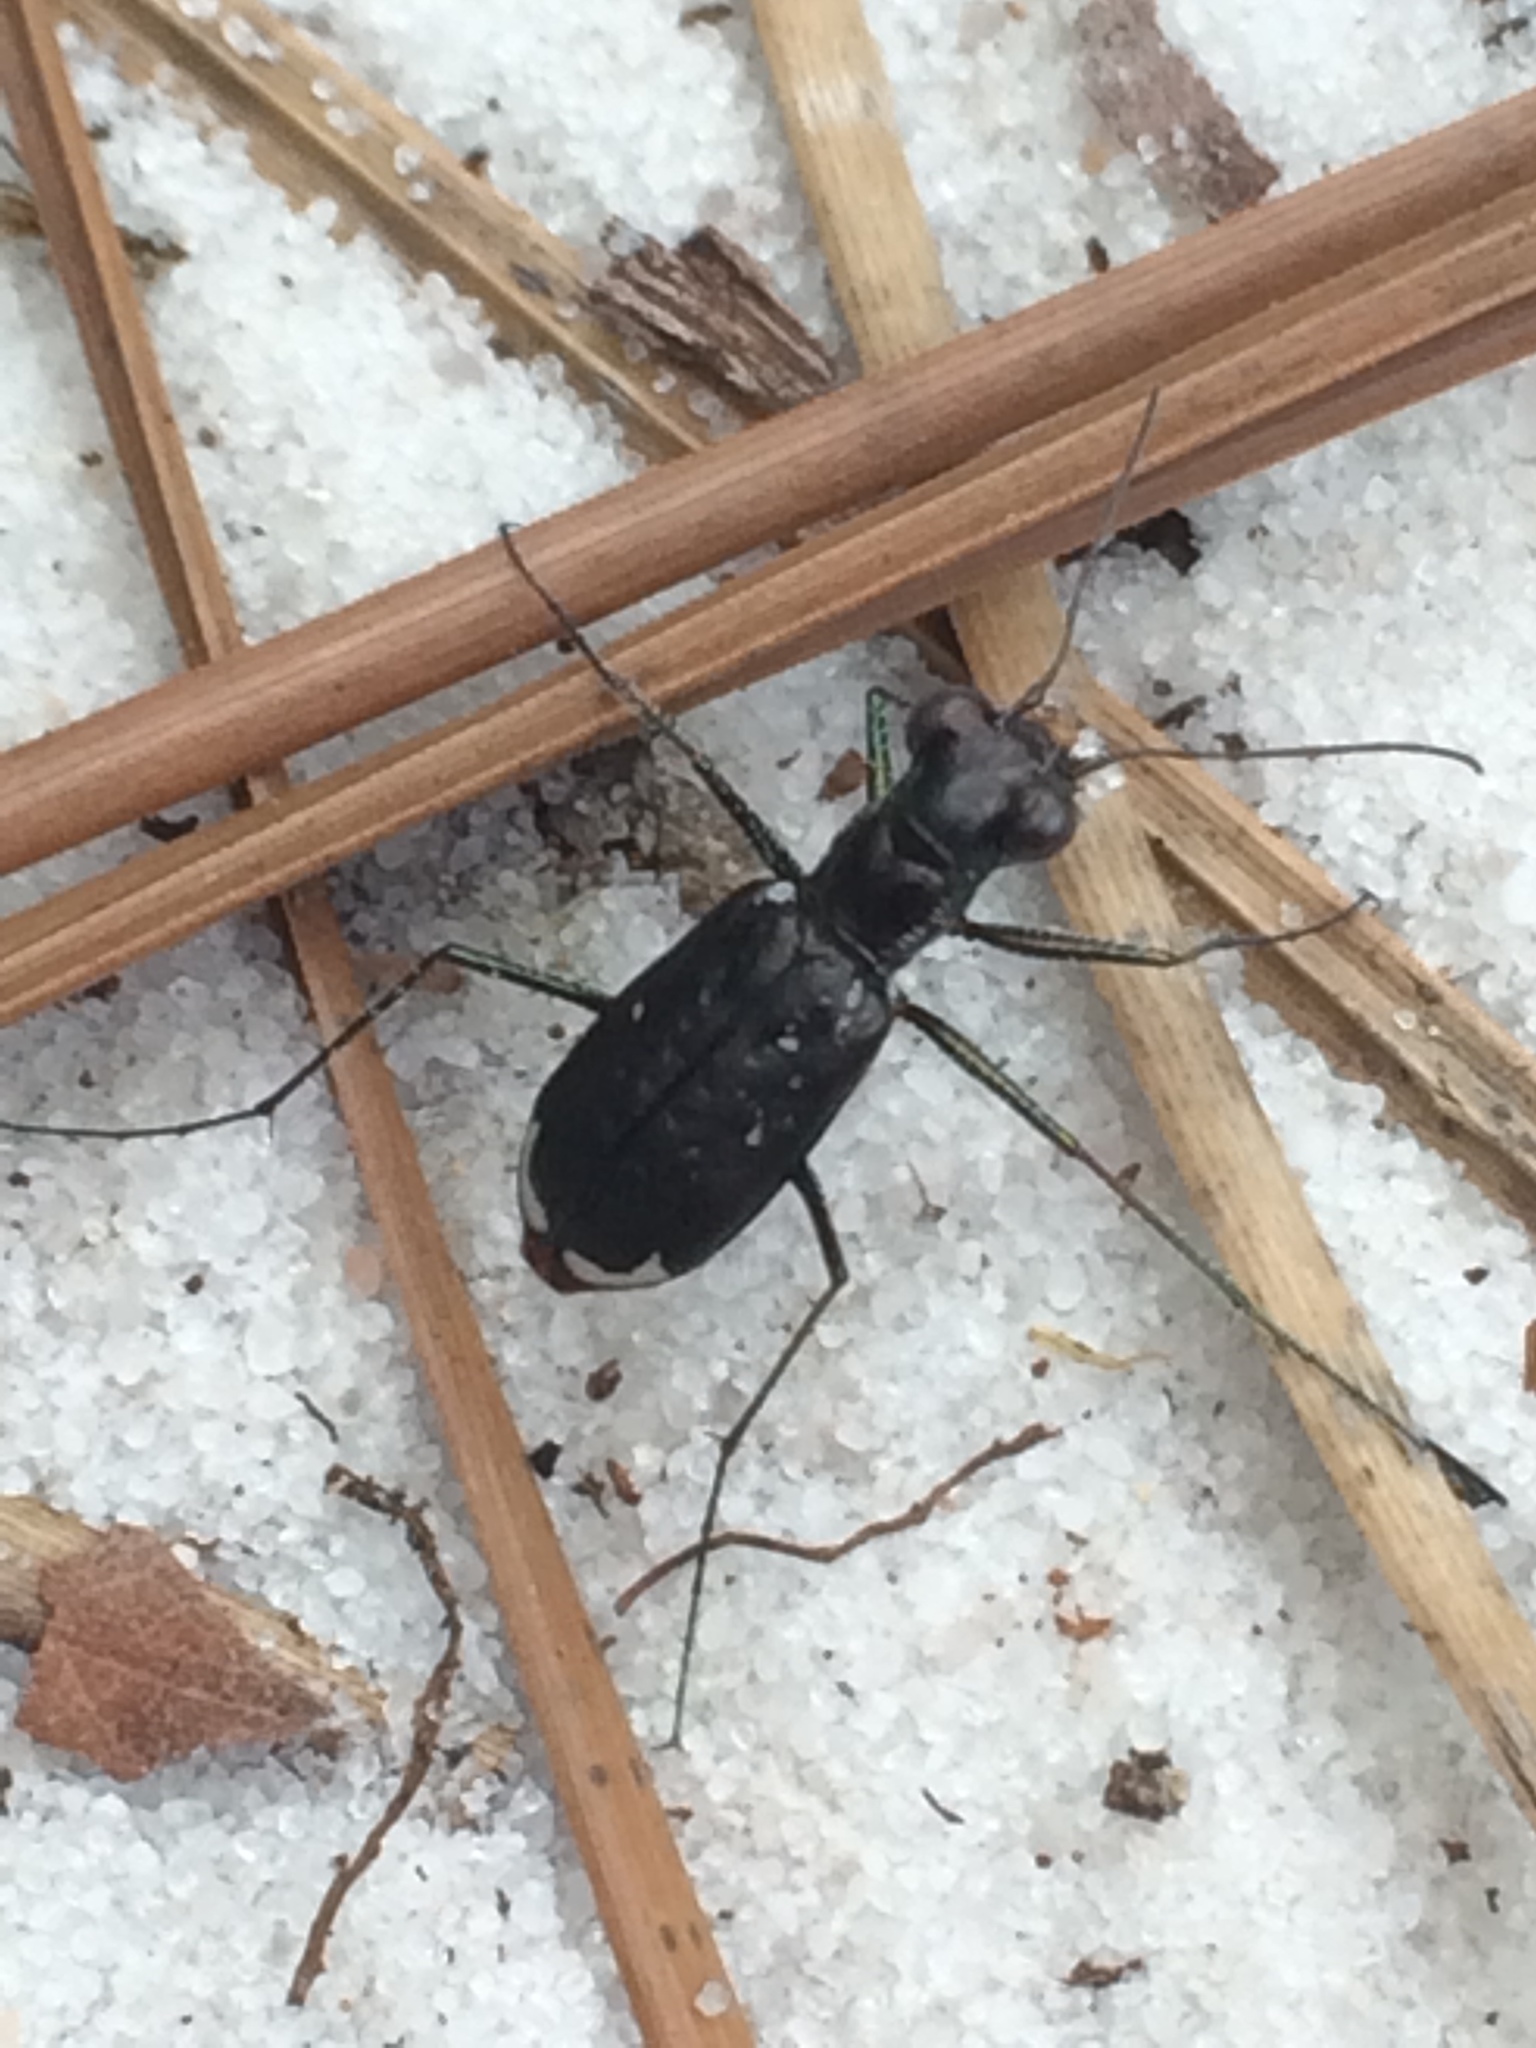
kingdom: Animalia
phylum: Arthropoda
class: Insecta
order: Coleoptera
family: Carabidae
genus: Cicindela
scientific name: Cicindela abdominalis
